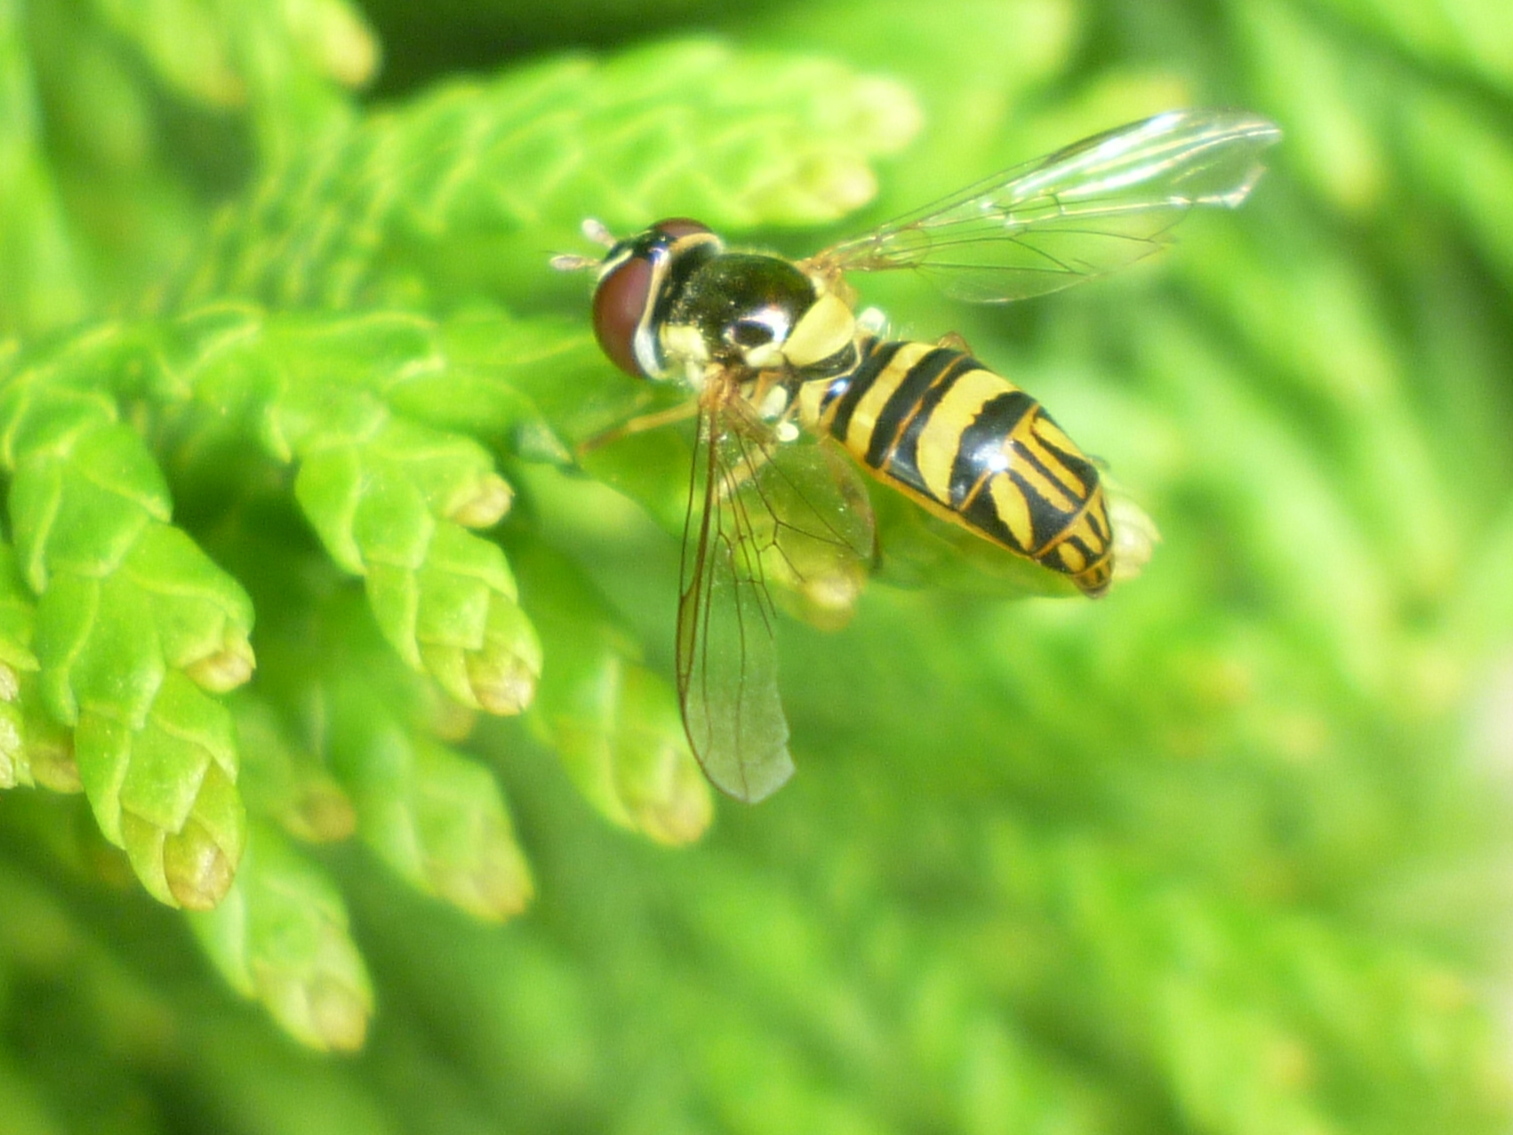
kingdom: Animalia
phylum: Arthropoda
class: Insecta
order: Diptera
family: Syrphidae
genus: Allograpta
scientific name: Allograpta obliqua
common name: Common oblique syrphid
